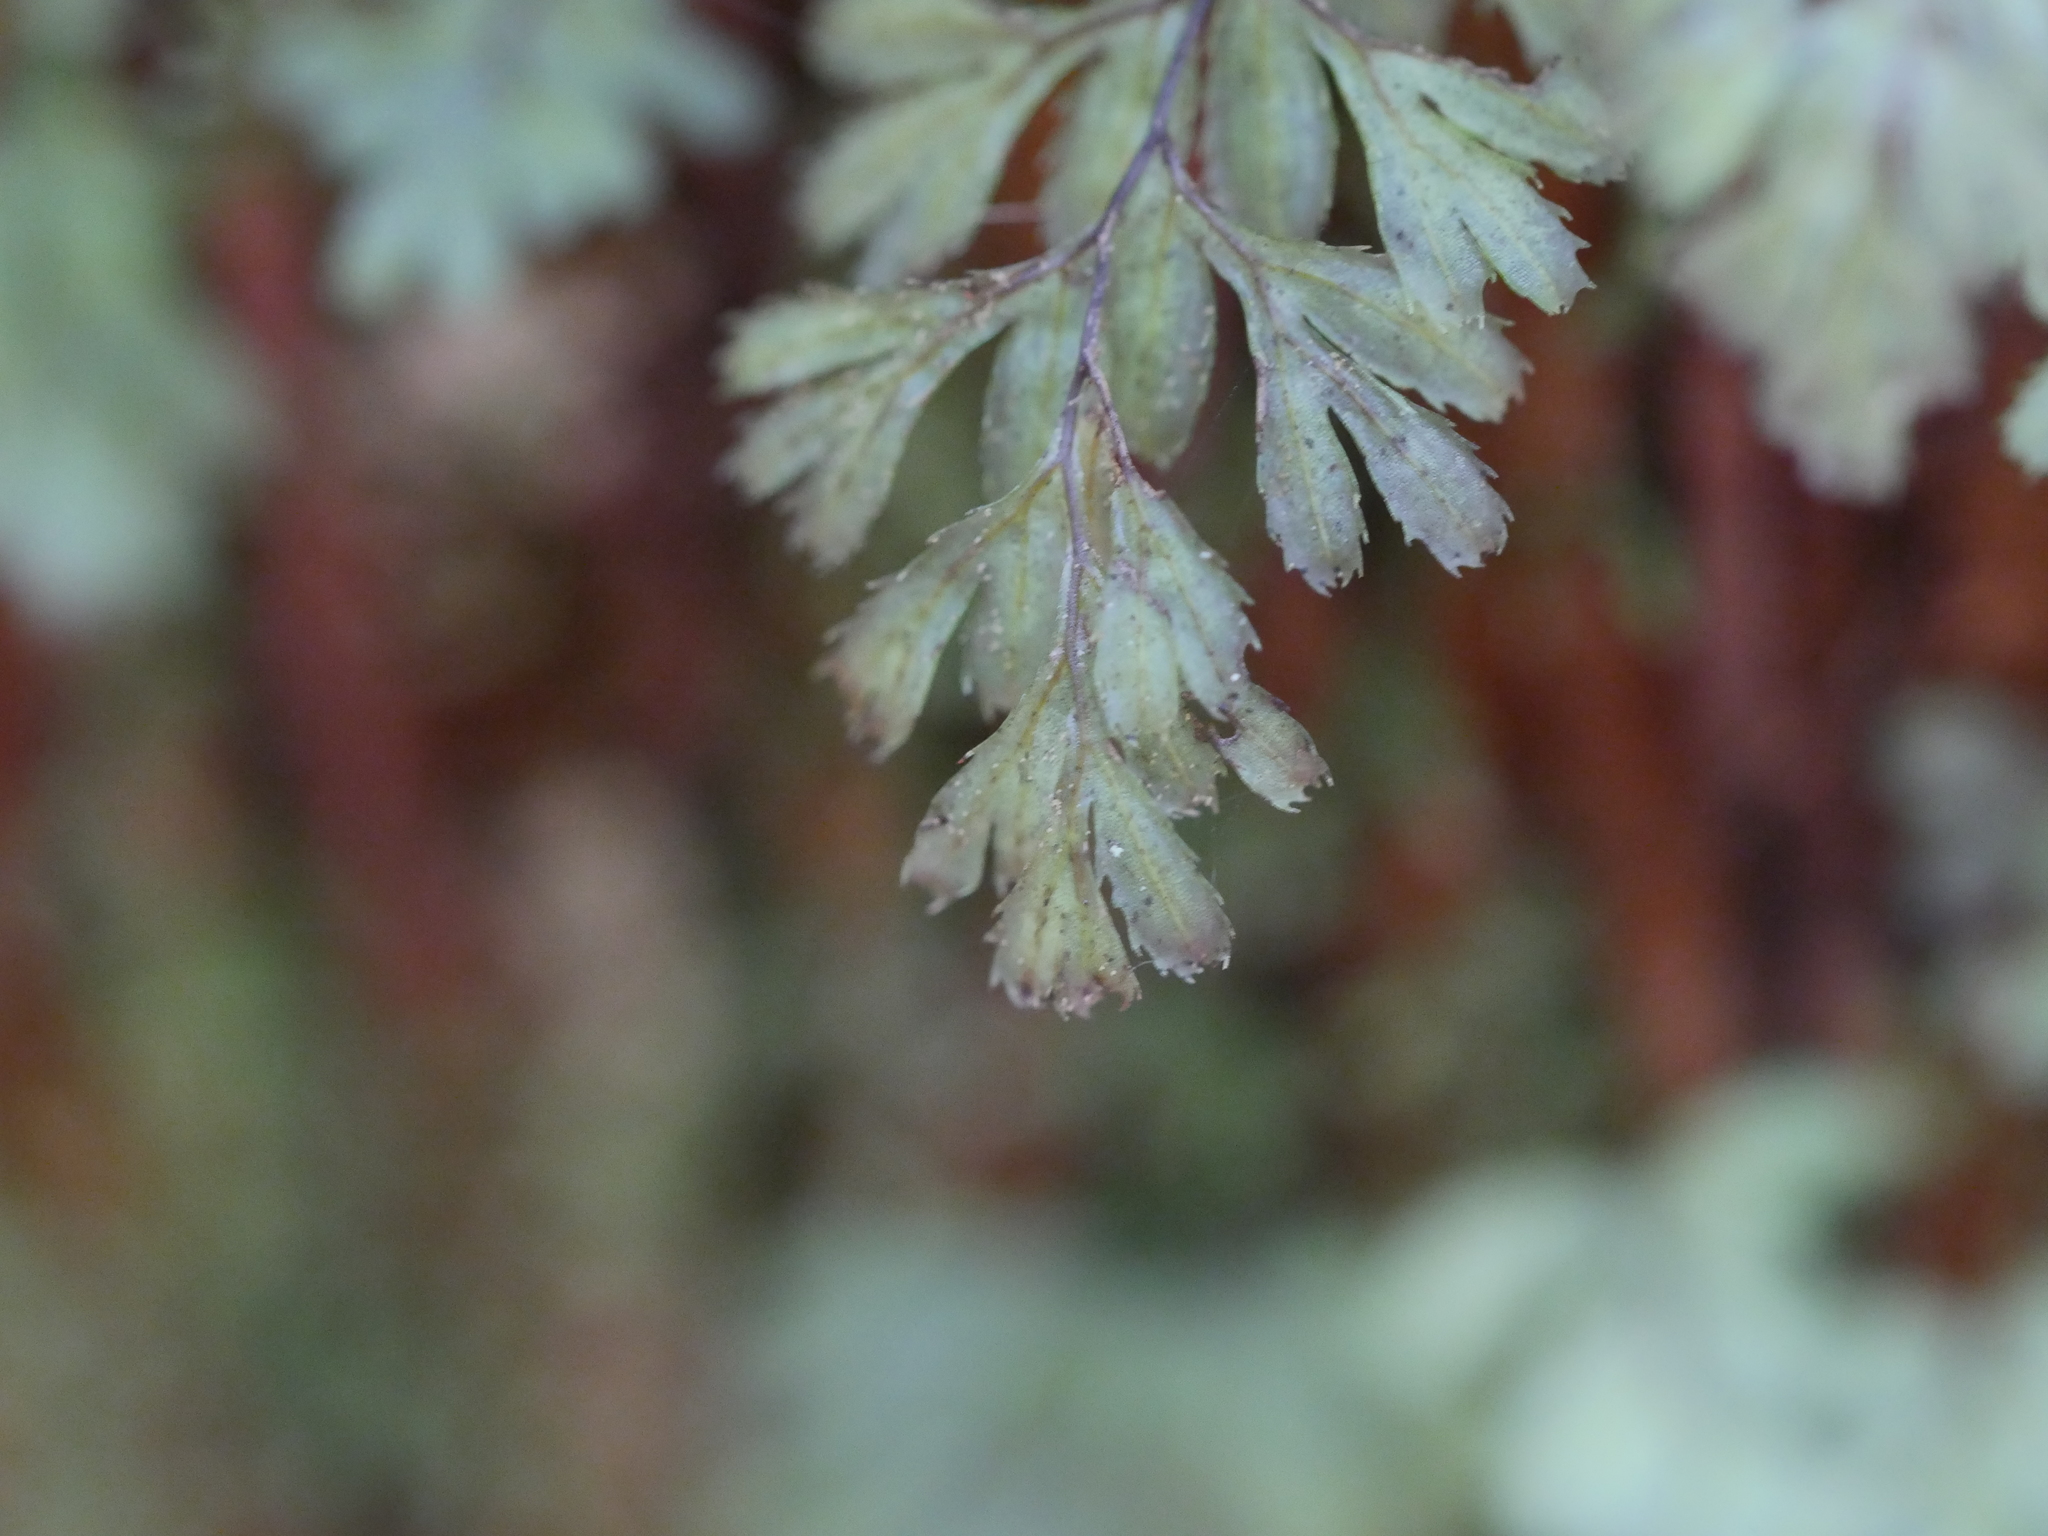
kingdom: Plantae
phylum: Tracheophyta
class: Polypodiopsida
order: Hymenophyllales
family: Hymenophyllaceae
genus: Hymenophyllum
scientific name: Hymenophyllum revolutum
